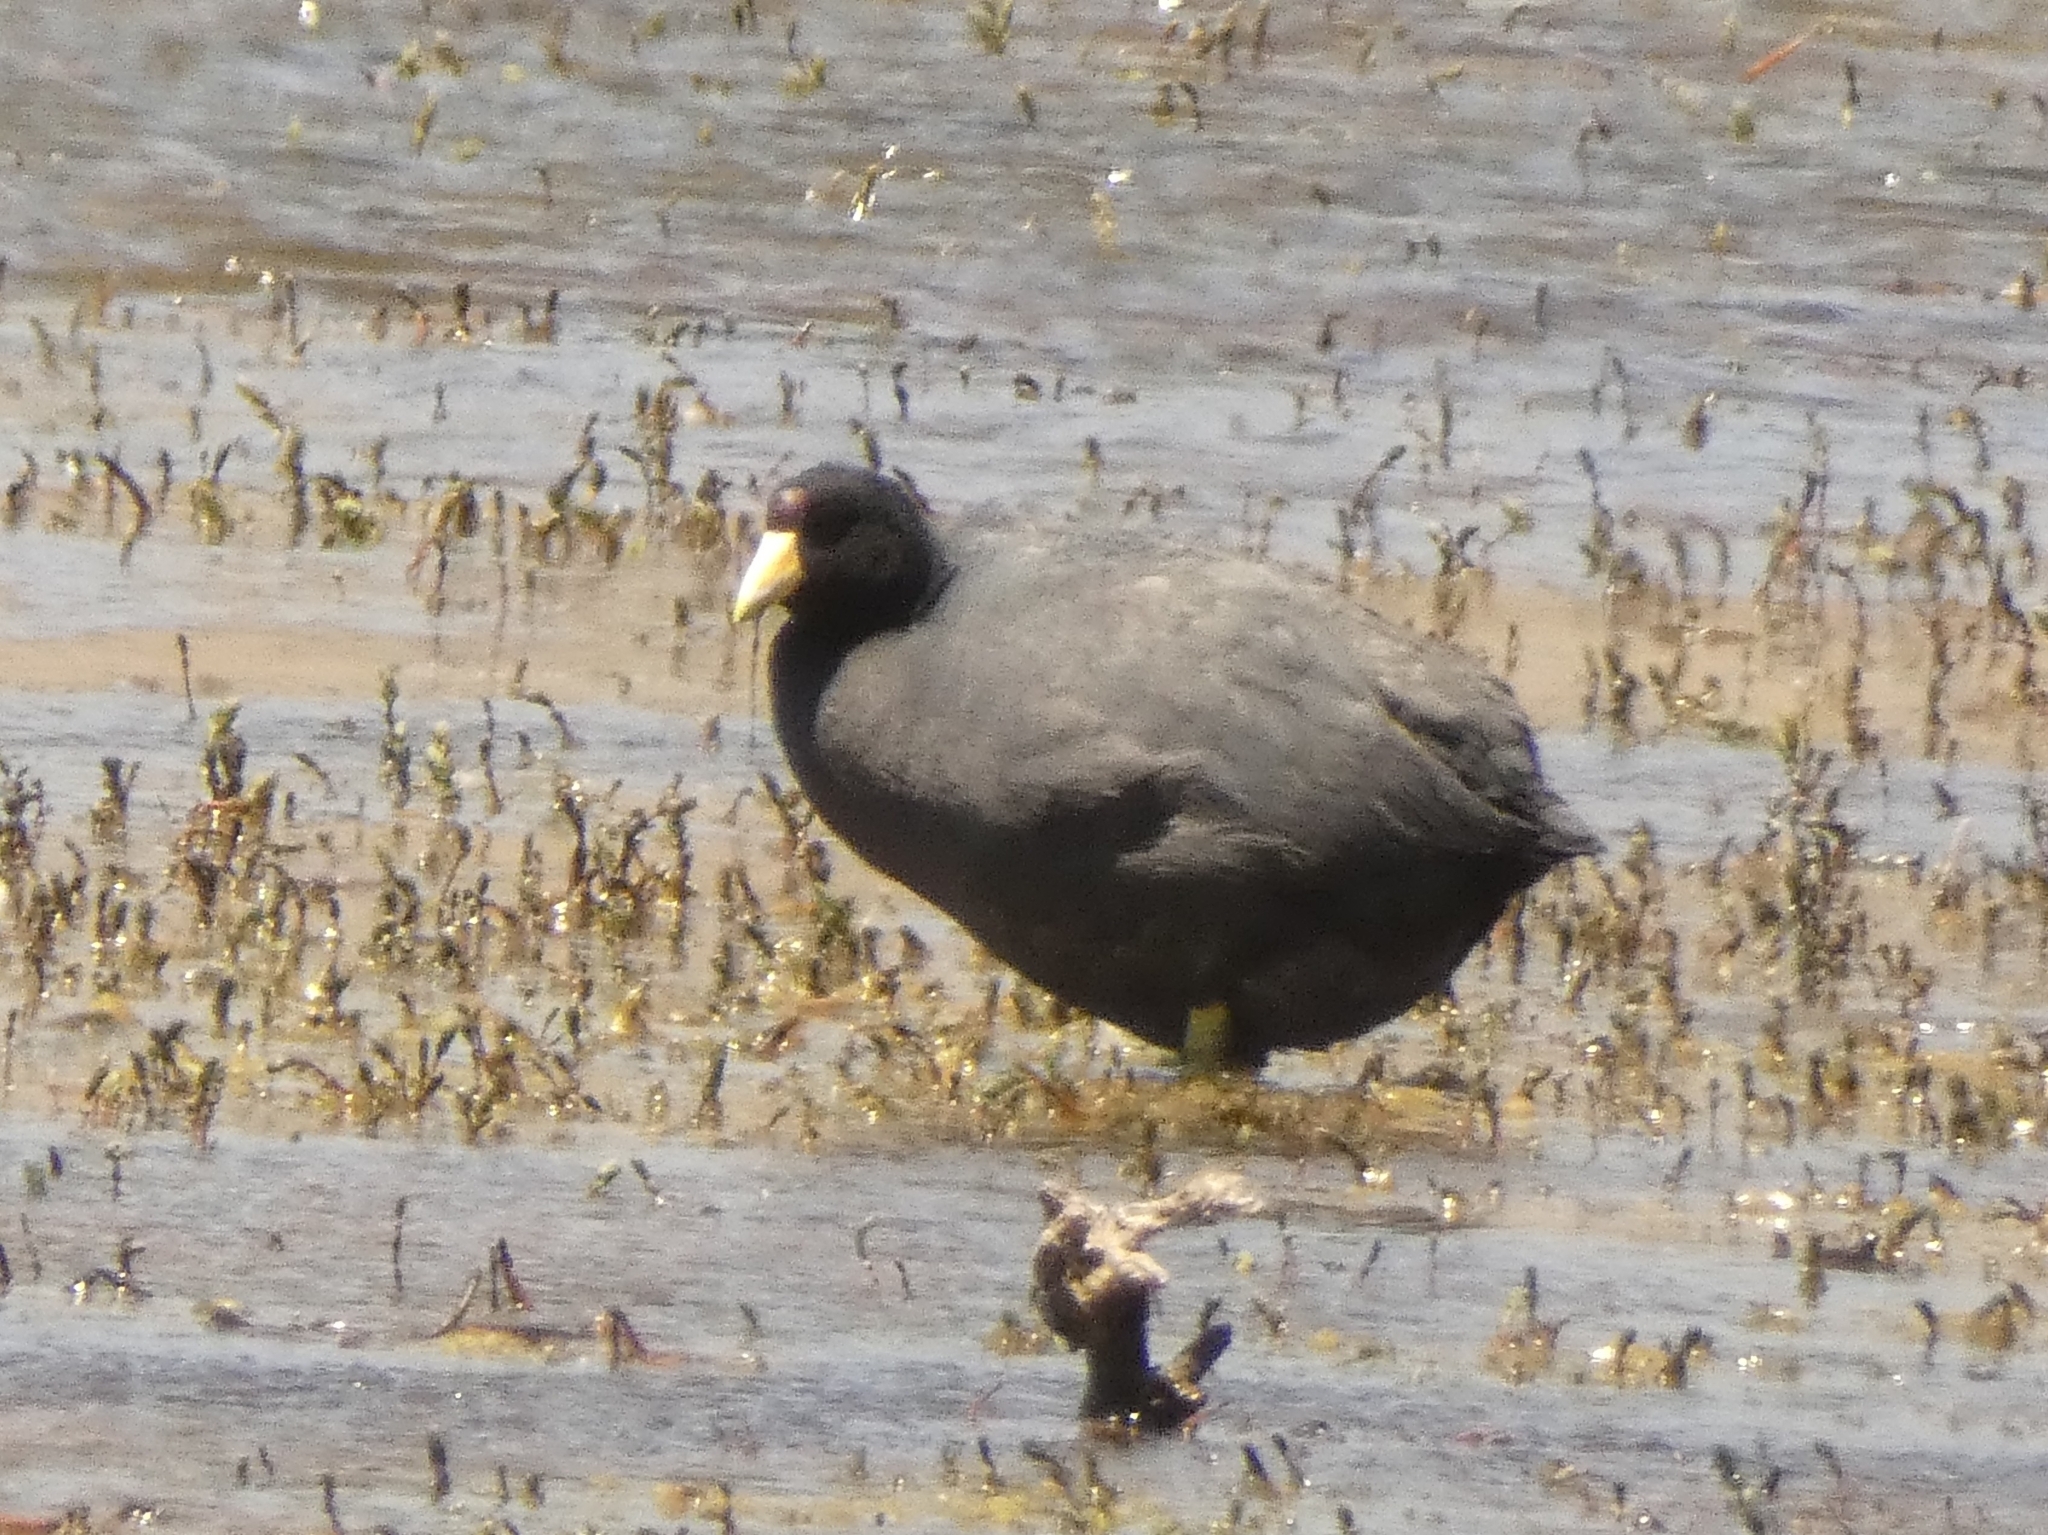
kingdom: Animalia
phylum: Chordata
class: Aves
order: Gruiformes
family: Rallidae
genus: Fulica
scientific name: Fulica ardesiaca
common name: Andean coot
